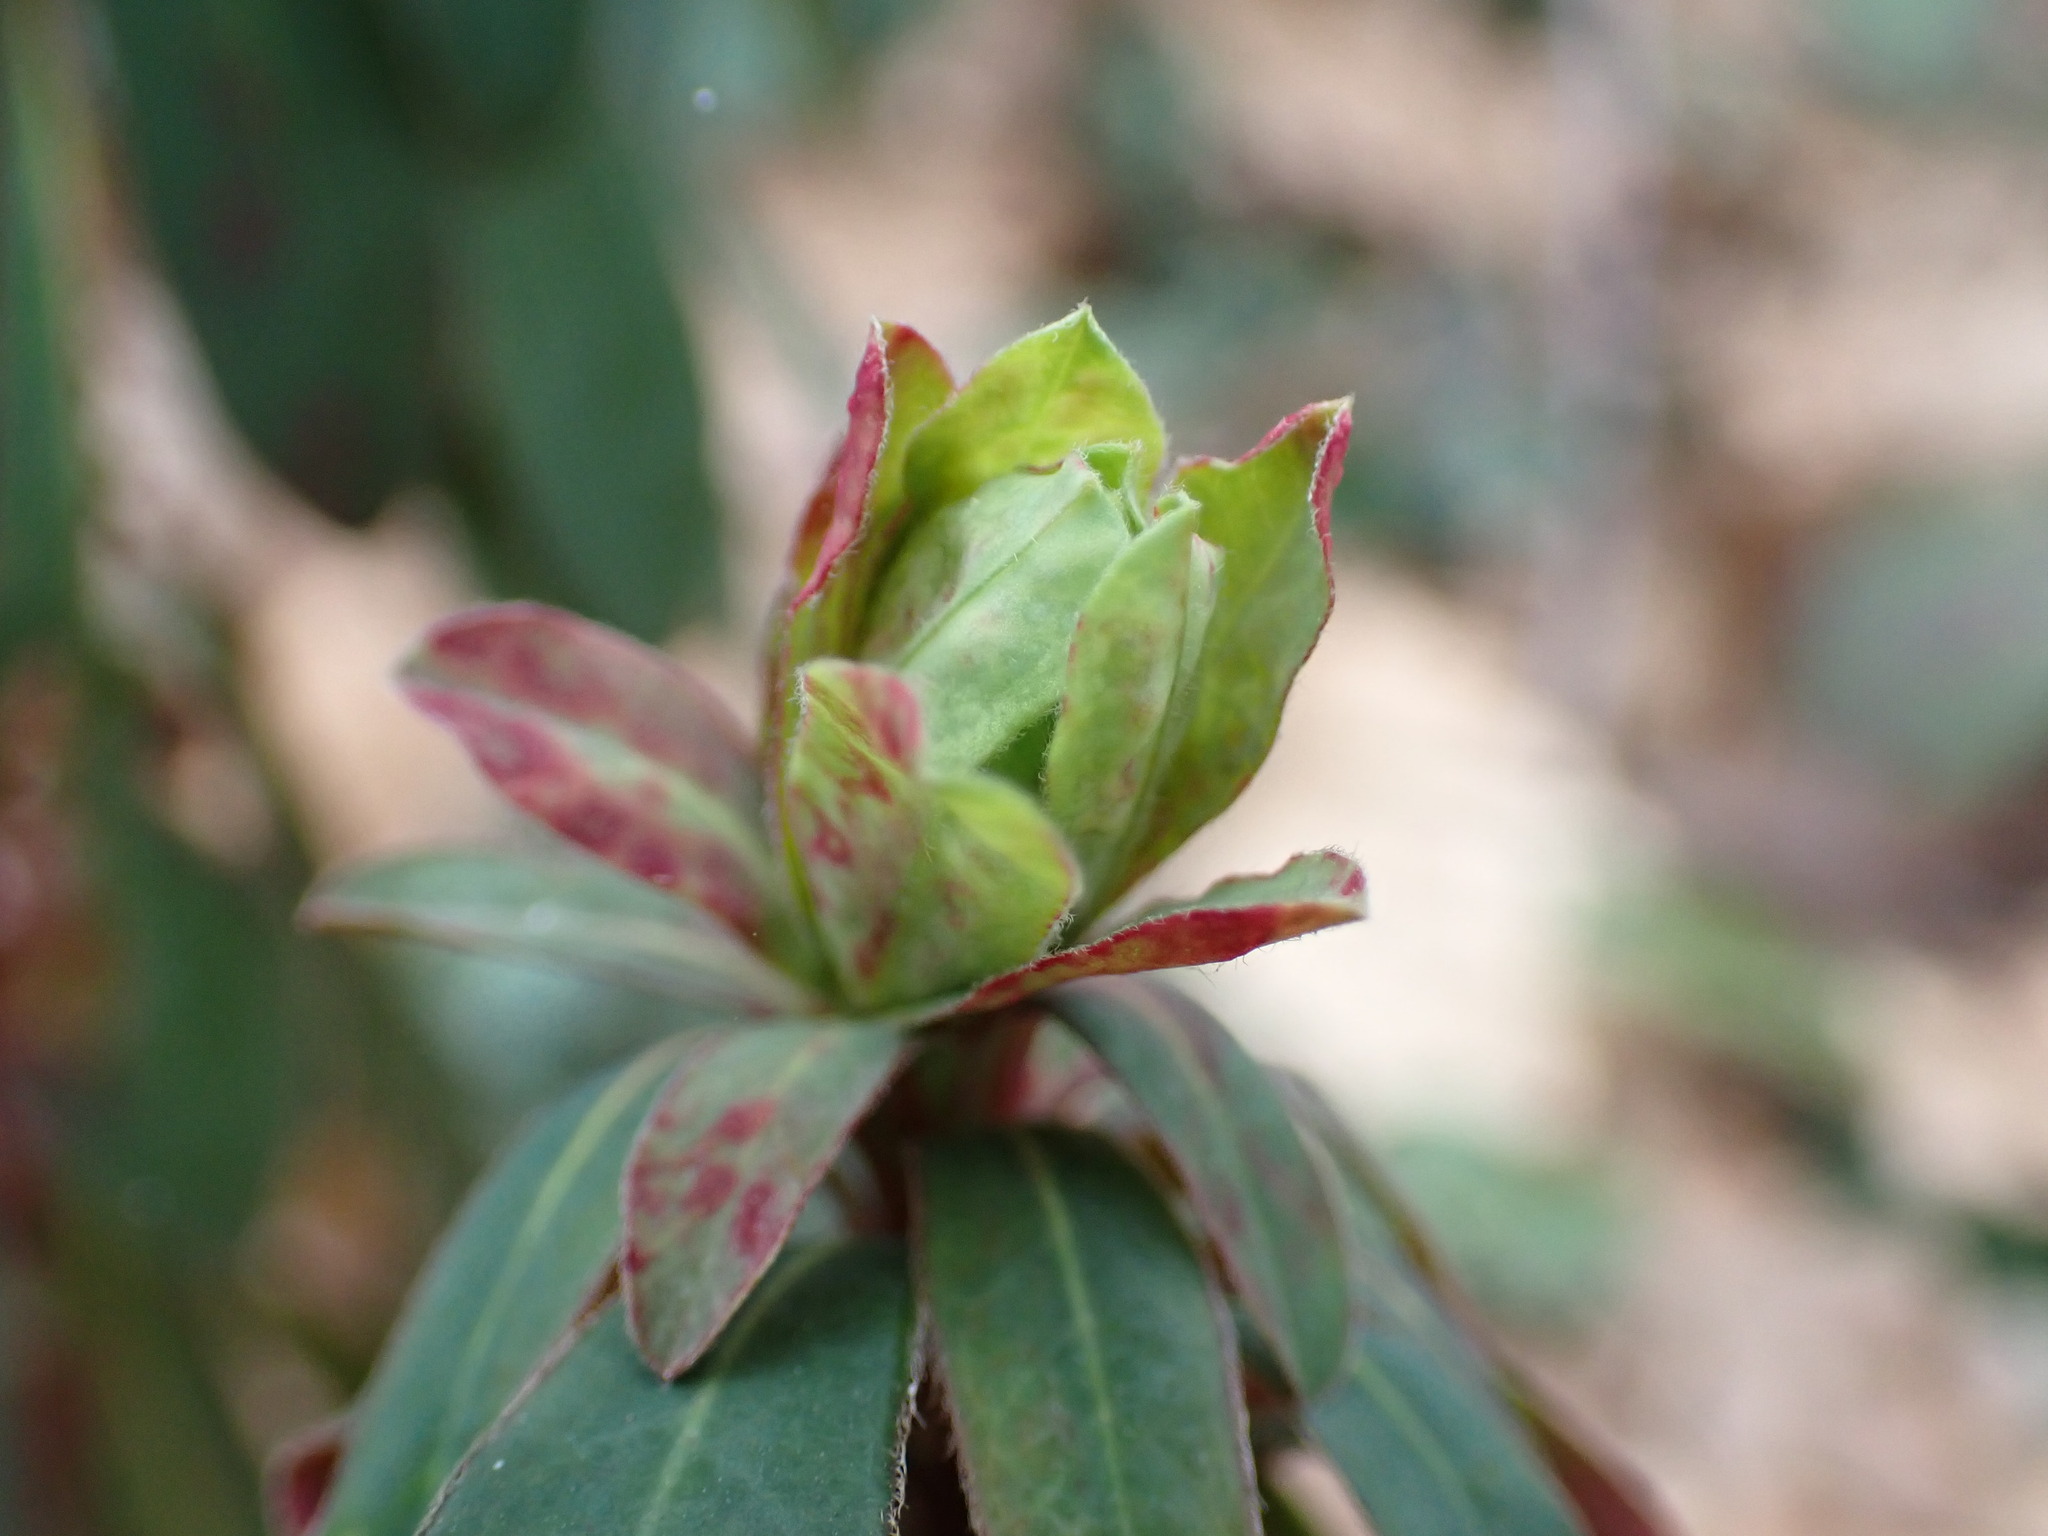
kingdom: Plantae
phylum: Tracheophyta
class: Magnoliopsida
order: Malpighiales
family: Euphorbiaceae
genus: Euphorbia
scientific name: Euphorbia amygdaloides
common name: Wood spurge
